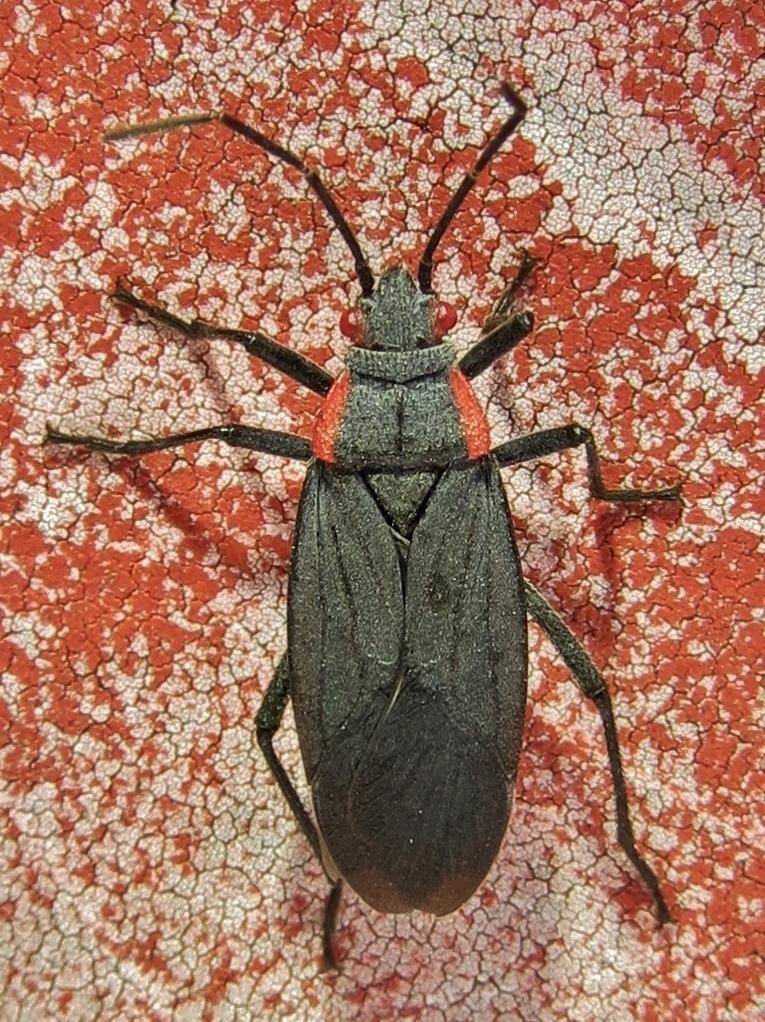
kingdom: Animalia
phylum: Arthropoda
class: Insecta
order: Hemiptera
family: Rhopalidae
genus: Jadera
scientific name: Jadera haematoloma
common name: Red-shouldered bug
